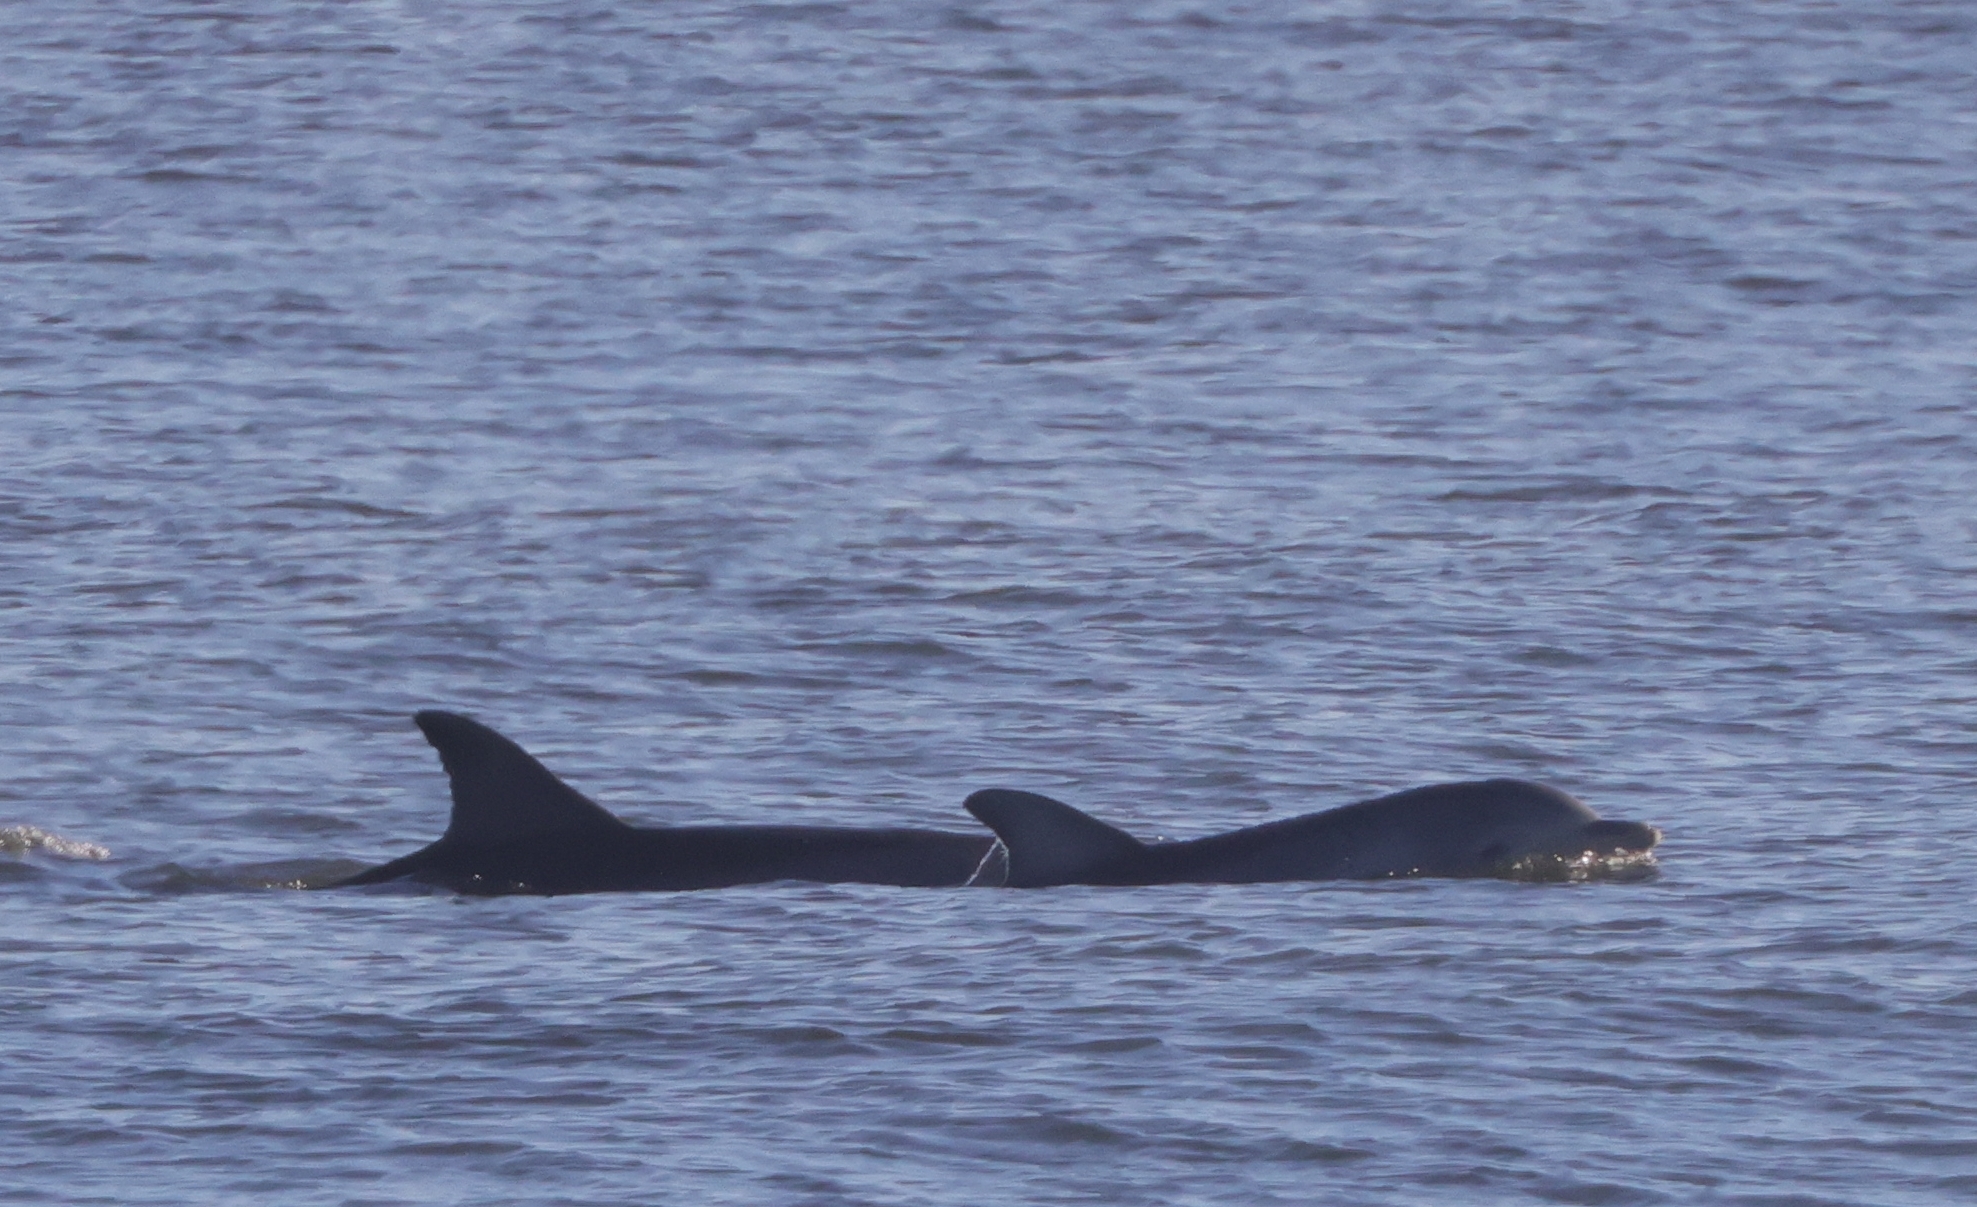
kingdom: Animalia
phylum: Chordata
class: Mammalia
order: Cetacea
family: Delphinidae
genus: Tursiops
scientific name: Tursiops truncatus
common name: Bottlenose dolphin
